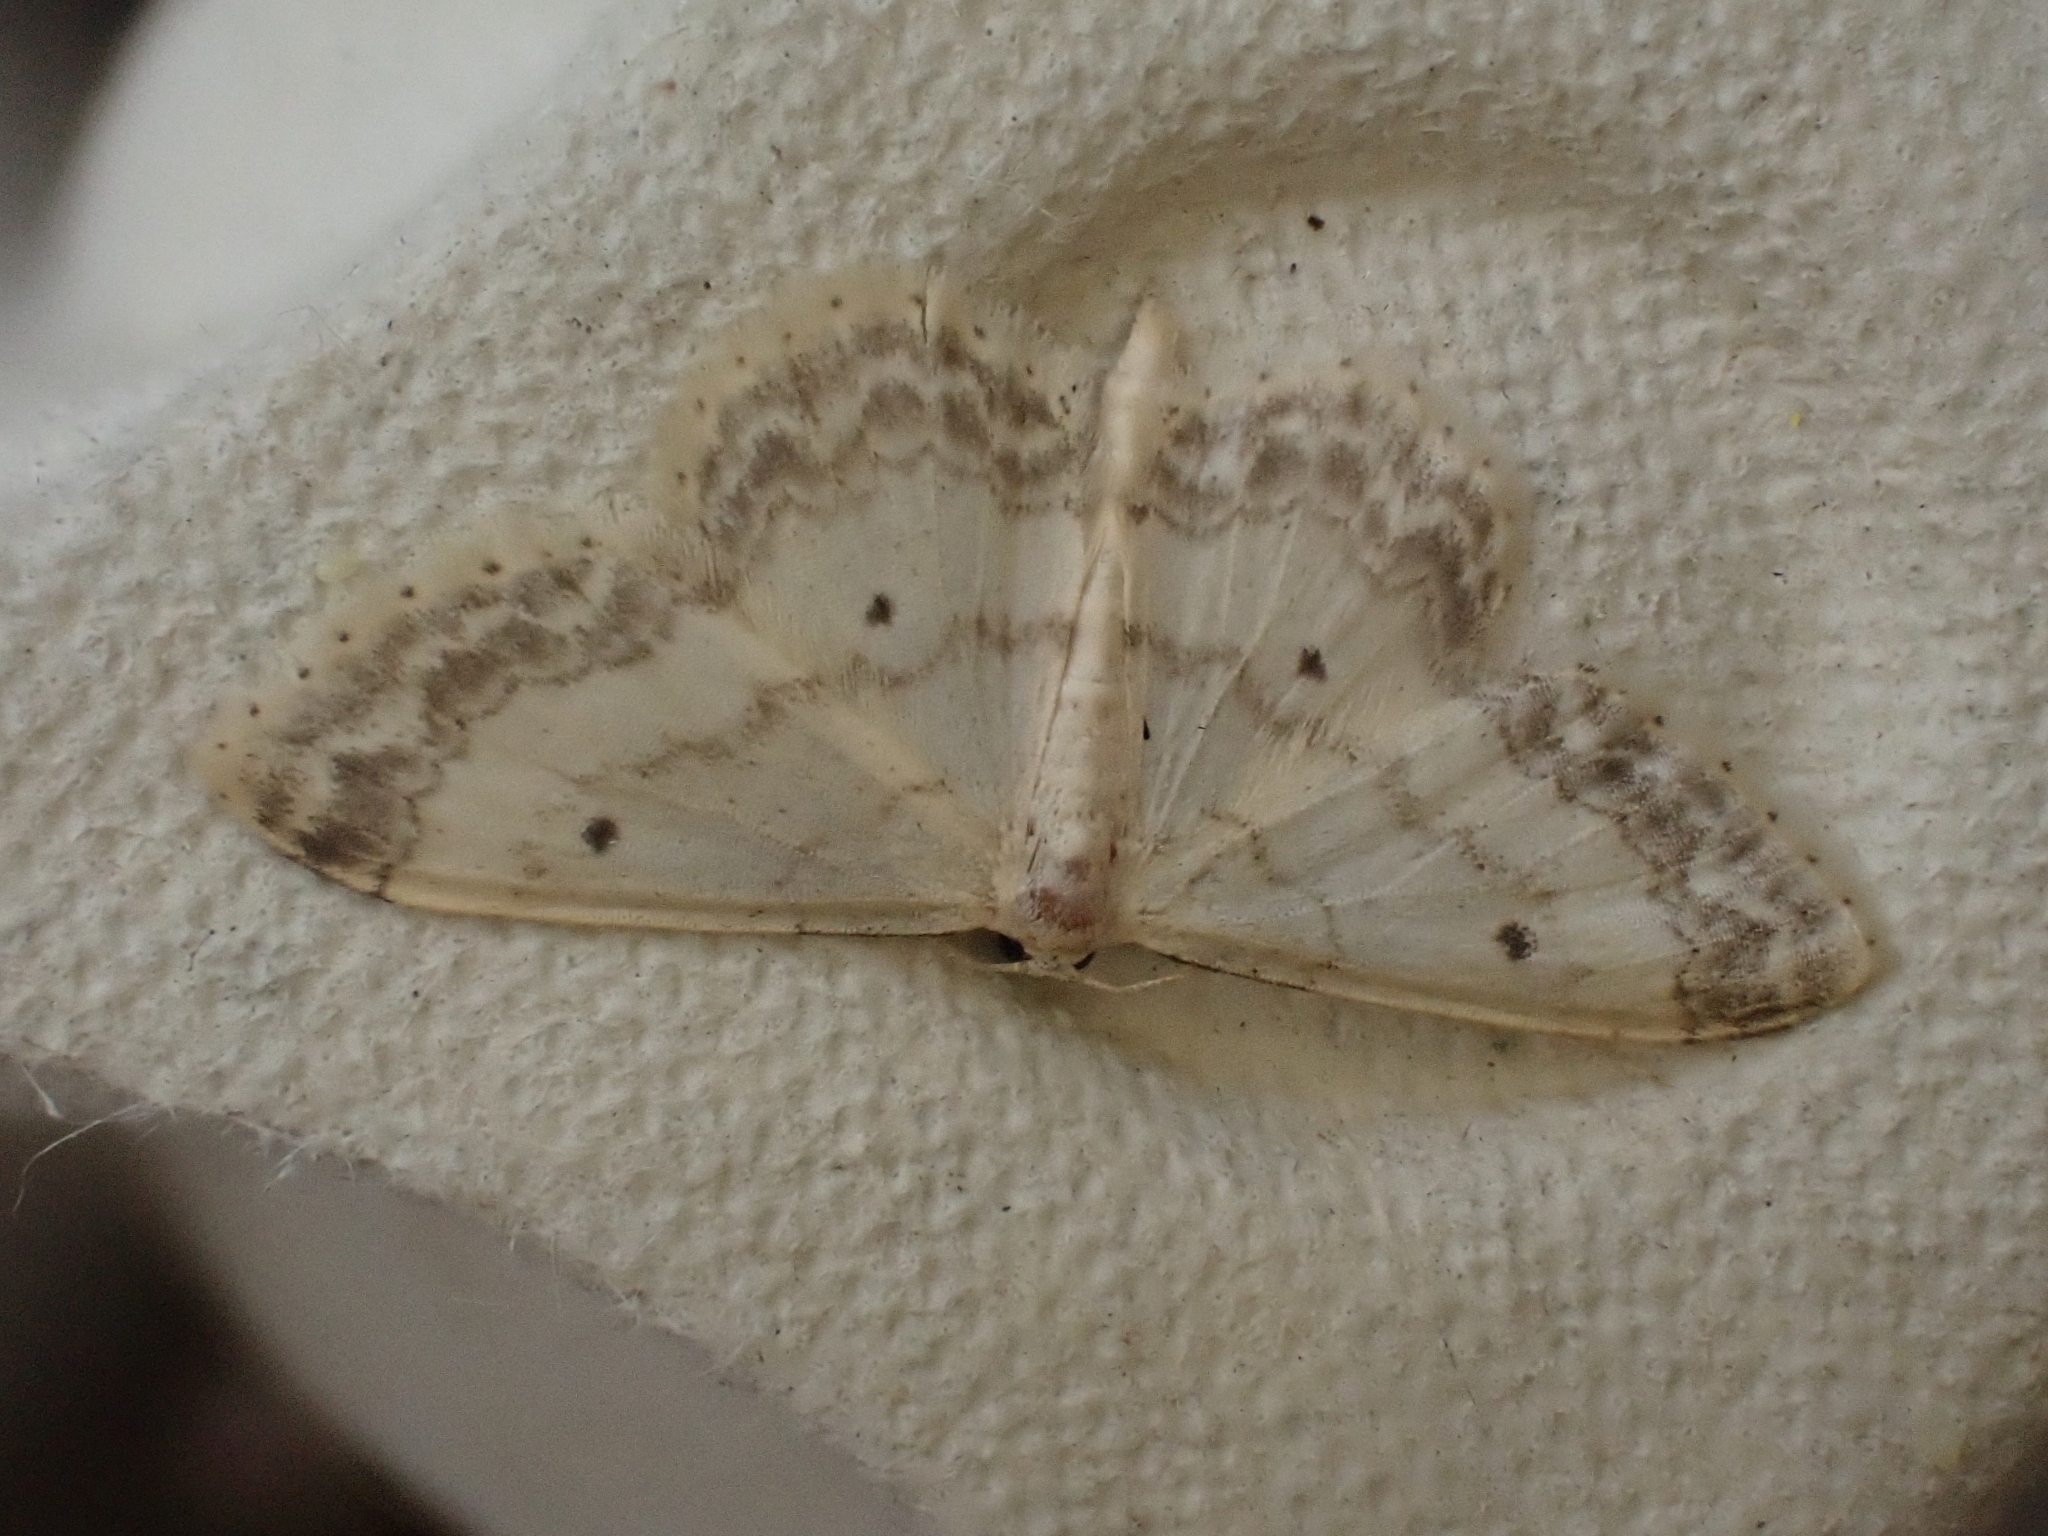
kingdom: Animalia
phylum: Arthropoda
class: Insecta
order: Lepidoptera
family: Geometridae
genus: Idaea
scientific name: Idaea biselata
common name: Small fan-footed wave
